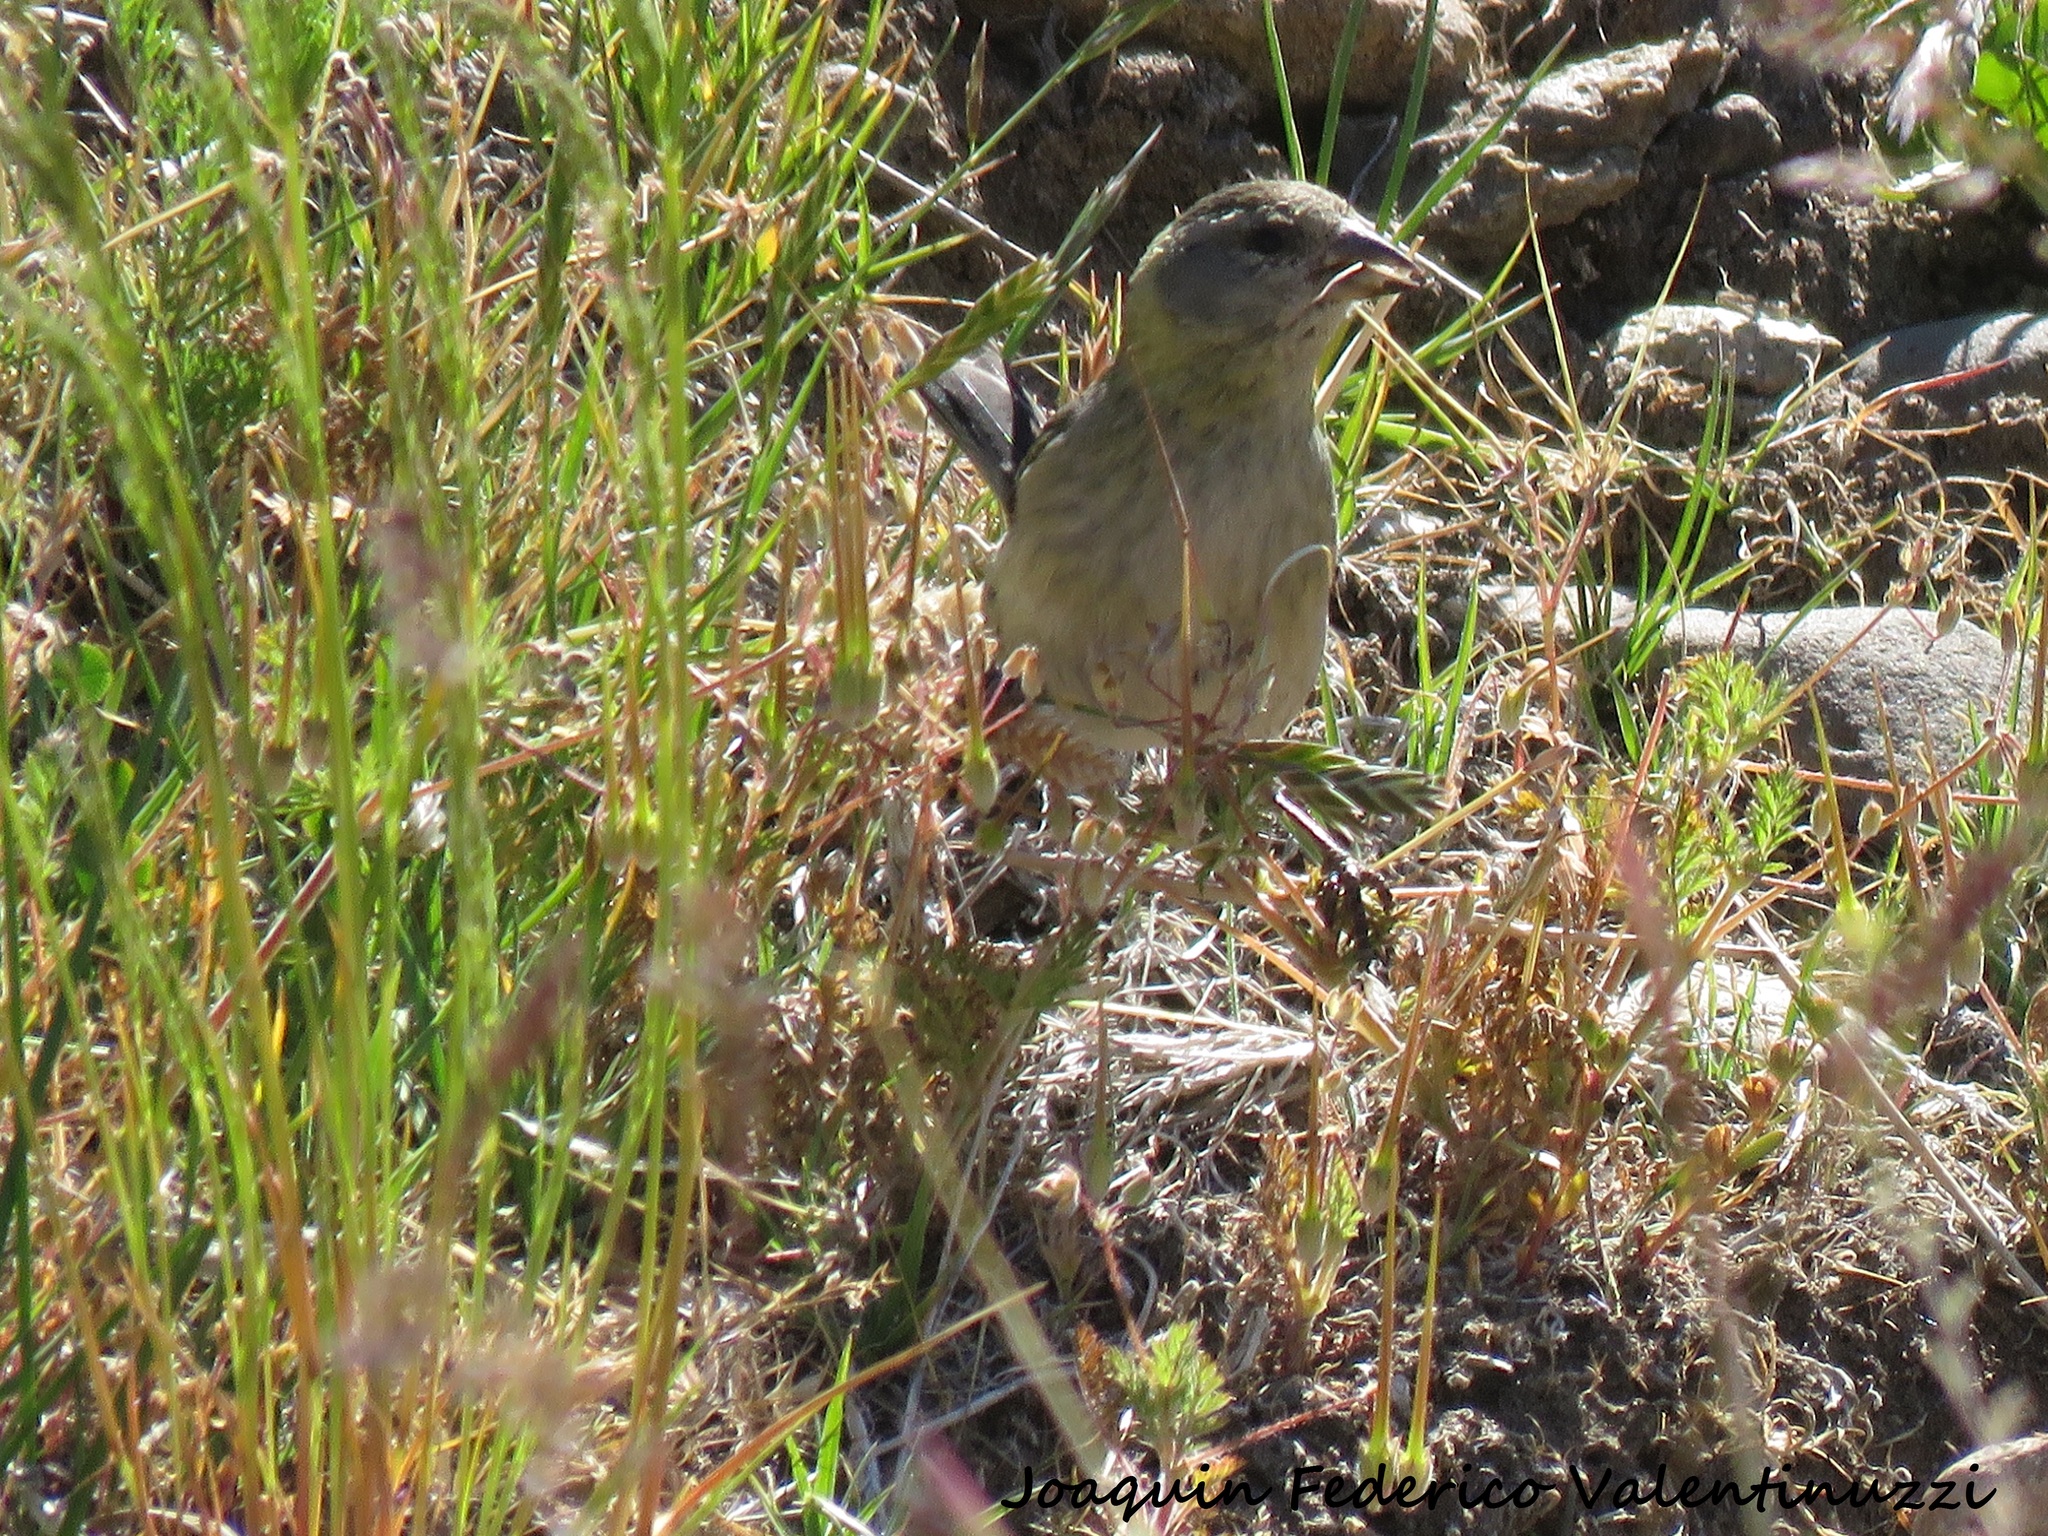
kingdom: Animalia
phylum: Chordata
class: Aves
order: Passeriformes
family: Fringillidae
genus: Spinus
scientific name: Spinus barbatus
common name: Black-chinned siskin
